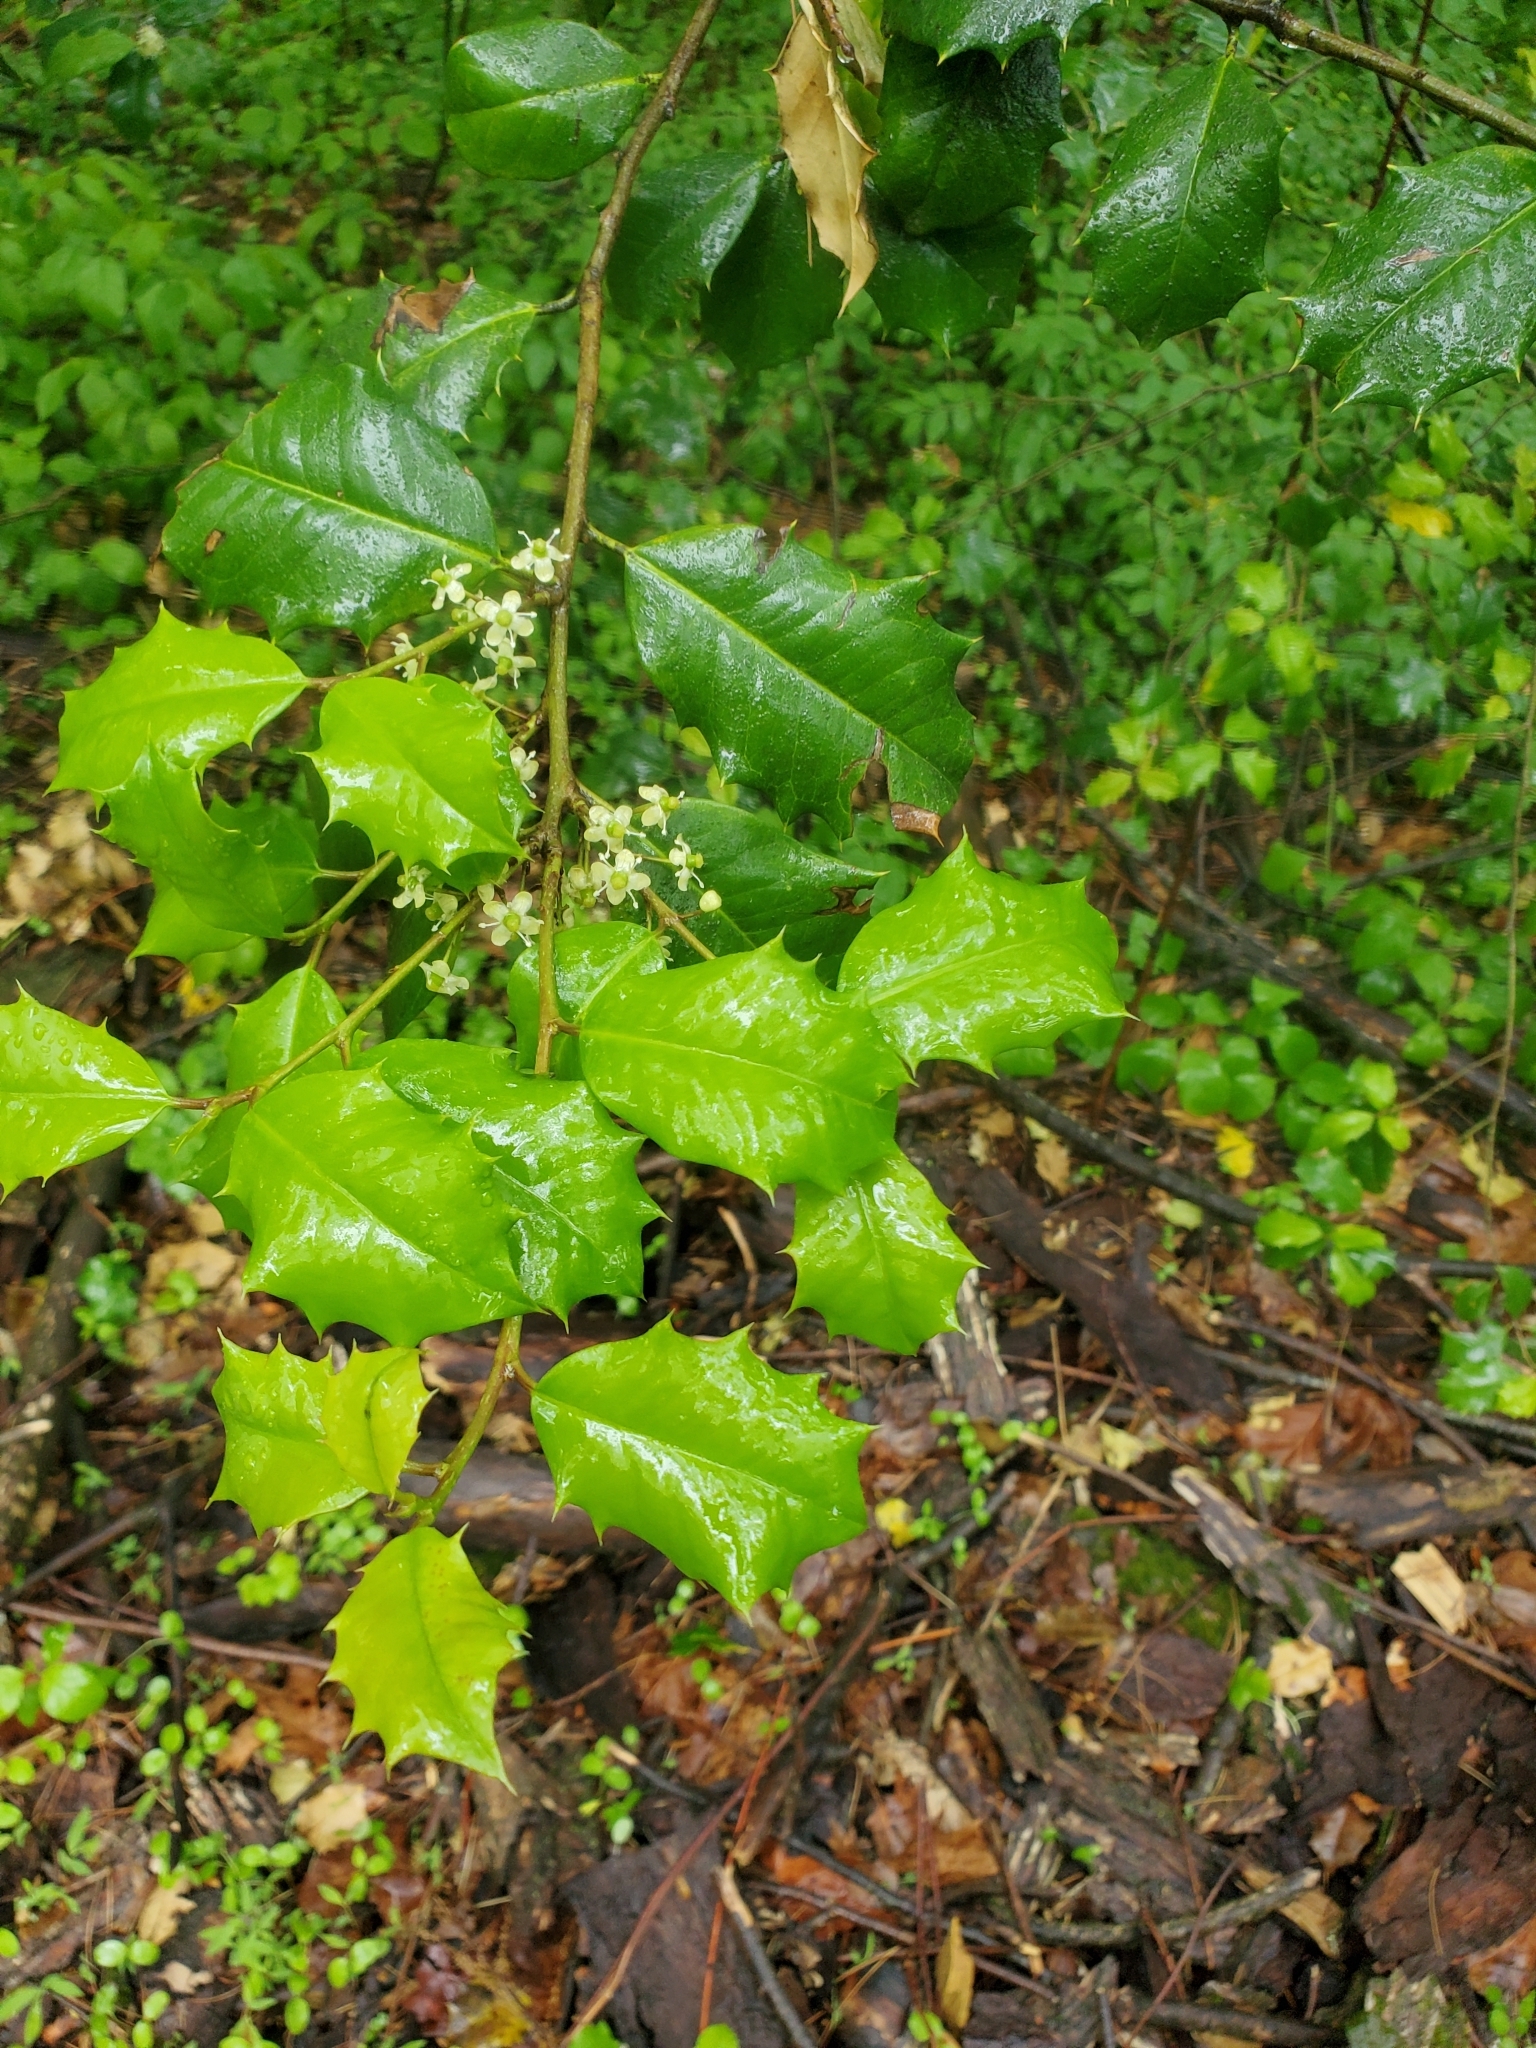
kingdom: Plantae
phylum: Tracheophyta
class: Magnoliopsida
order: Aquifoliales
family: Aquifoliaceae
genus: Ilex
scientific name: Ilex opaca
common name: American holly
